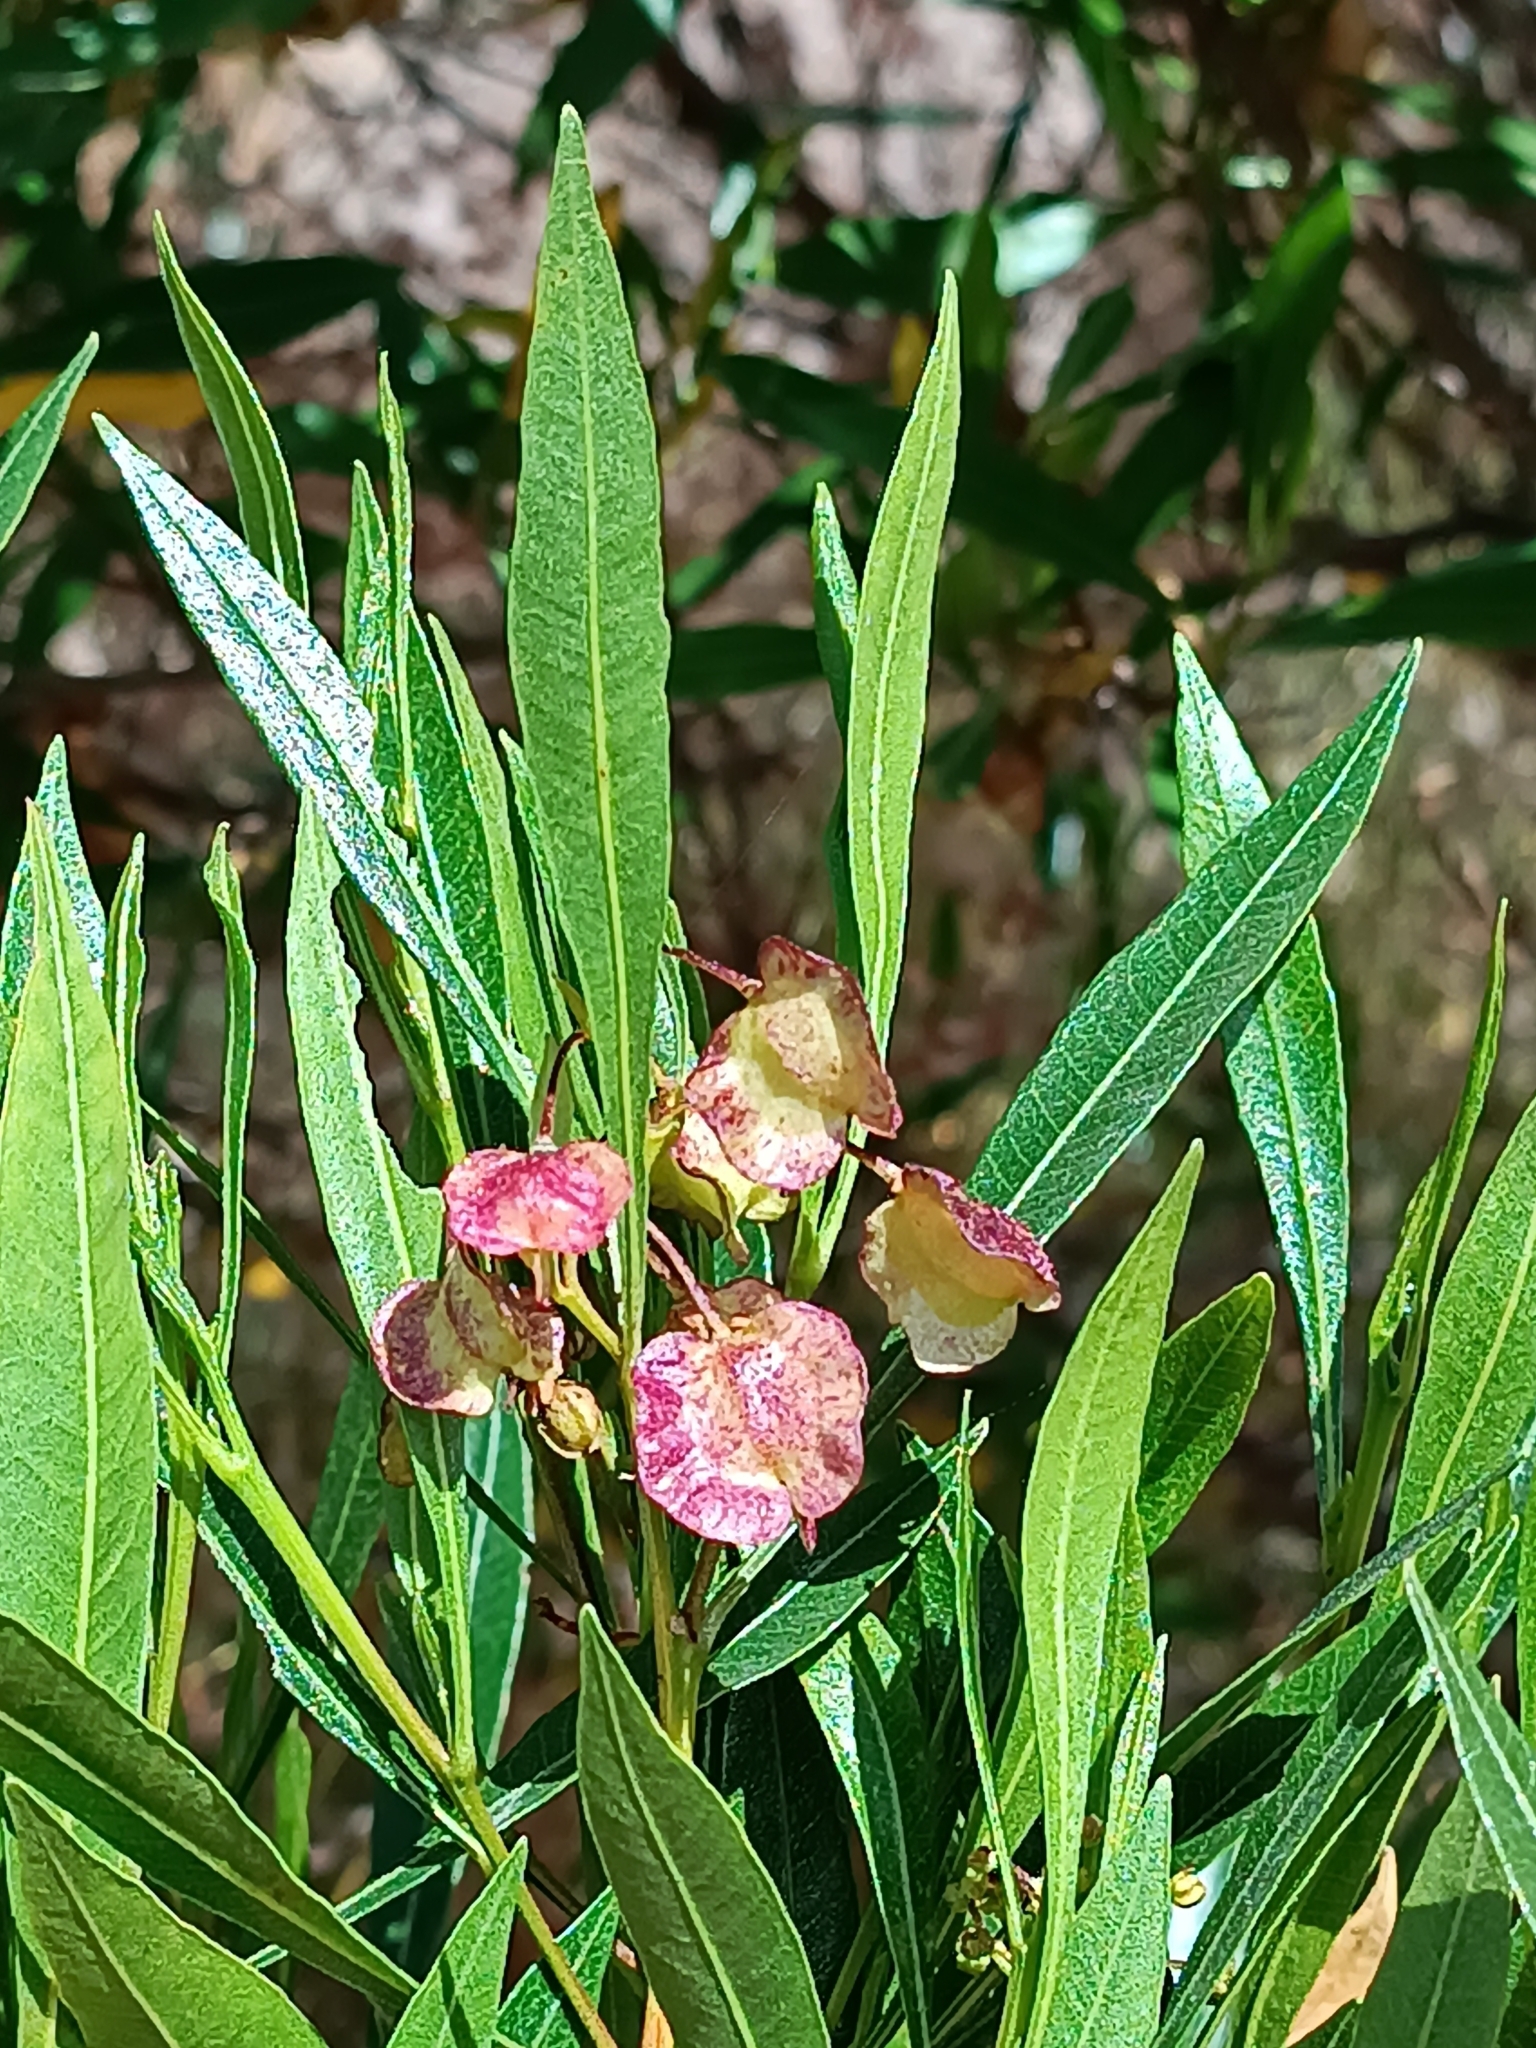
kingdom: Plantae
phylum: Tracheophyta
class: Magnoliopsida
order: Sapindales
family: Sapindaceae
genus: Dodonaea
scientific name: Dodonaea viscosa
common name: Hopbush
